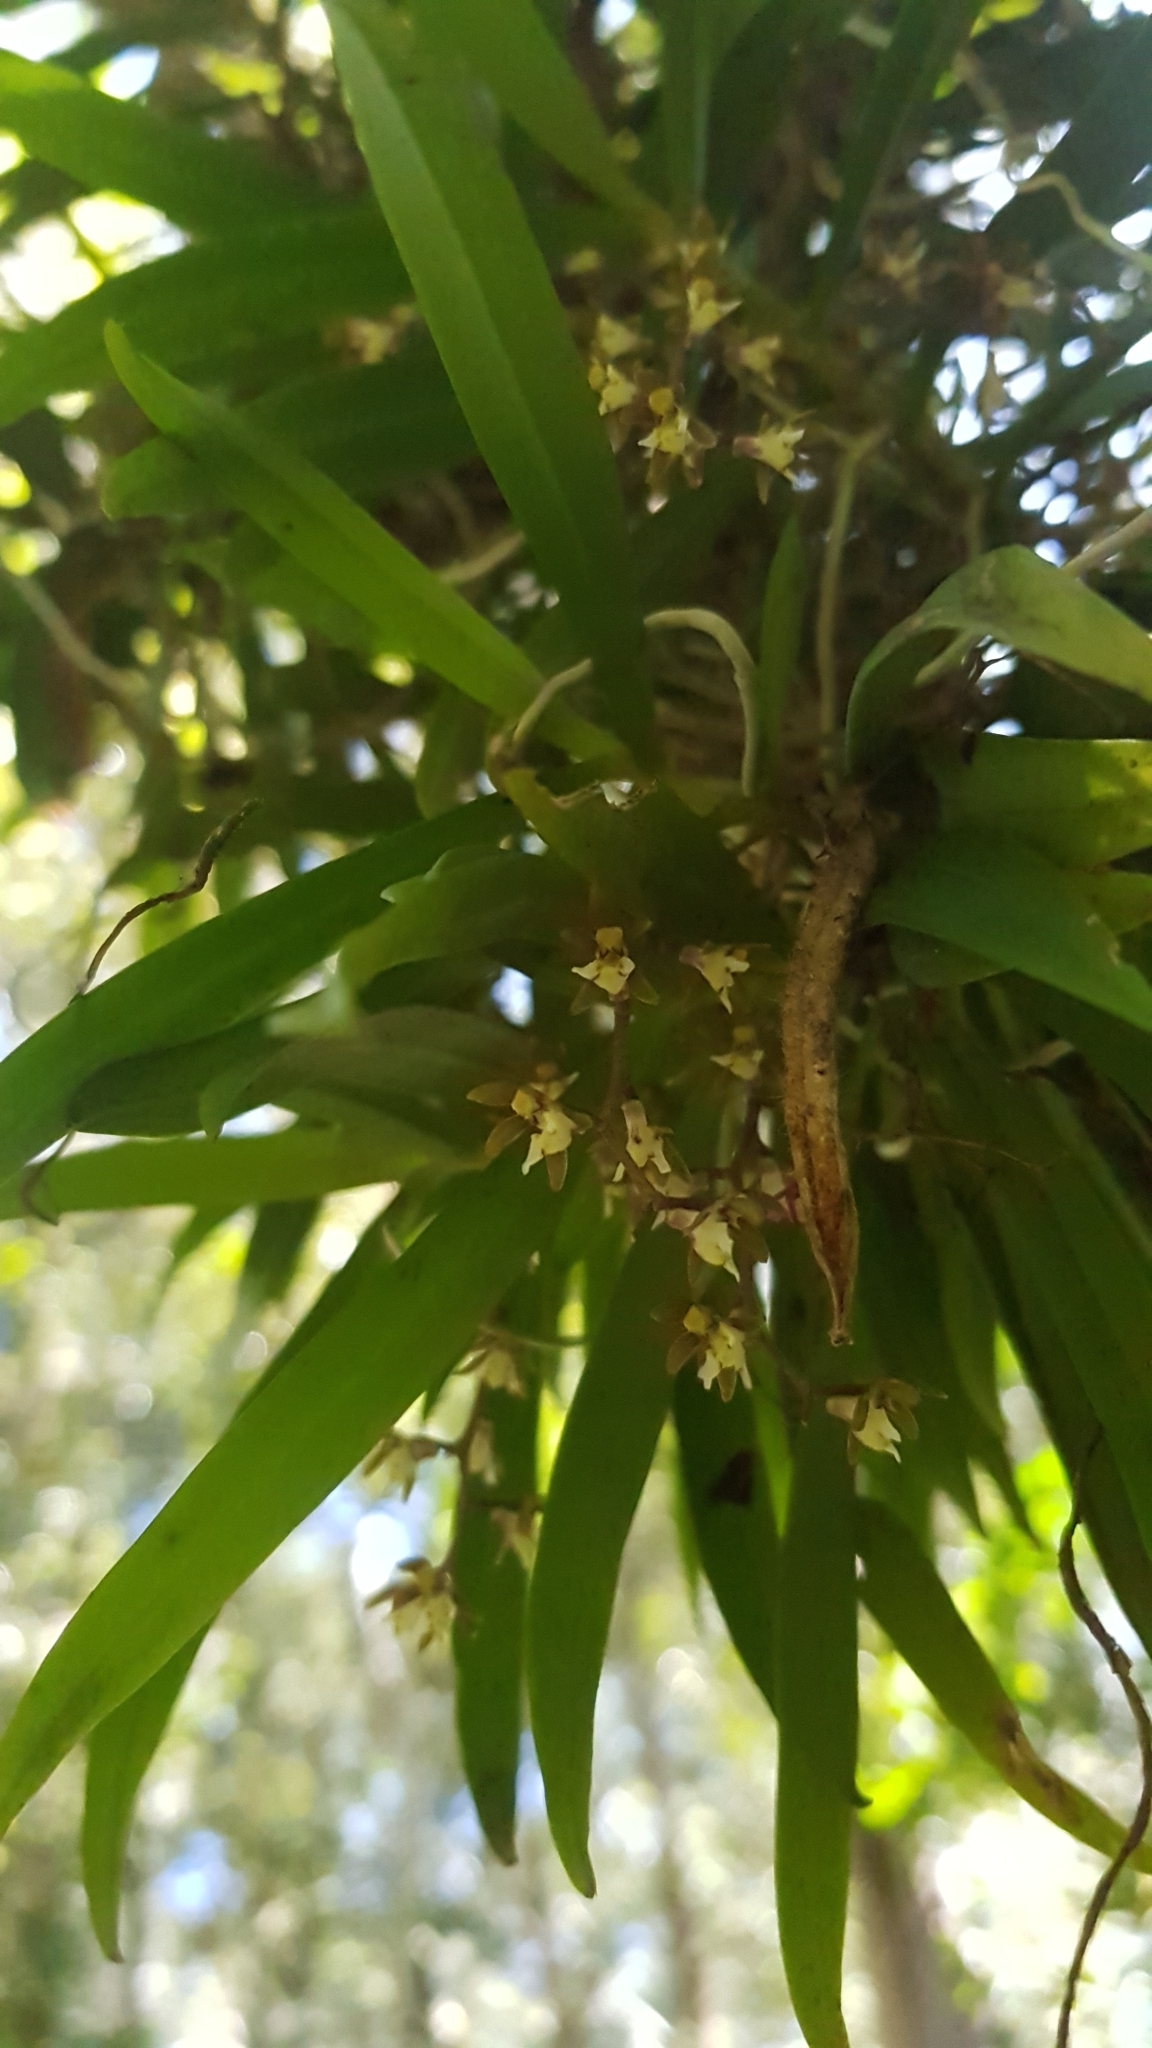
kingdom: Plantae
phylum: Tracheophyta
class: Liliopsida
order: Asparagales
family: Orchidaceae
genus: Plectorrhiza
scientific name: Plectorrhiza tridentata
